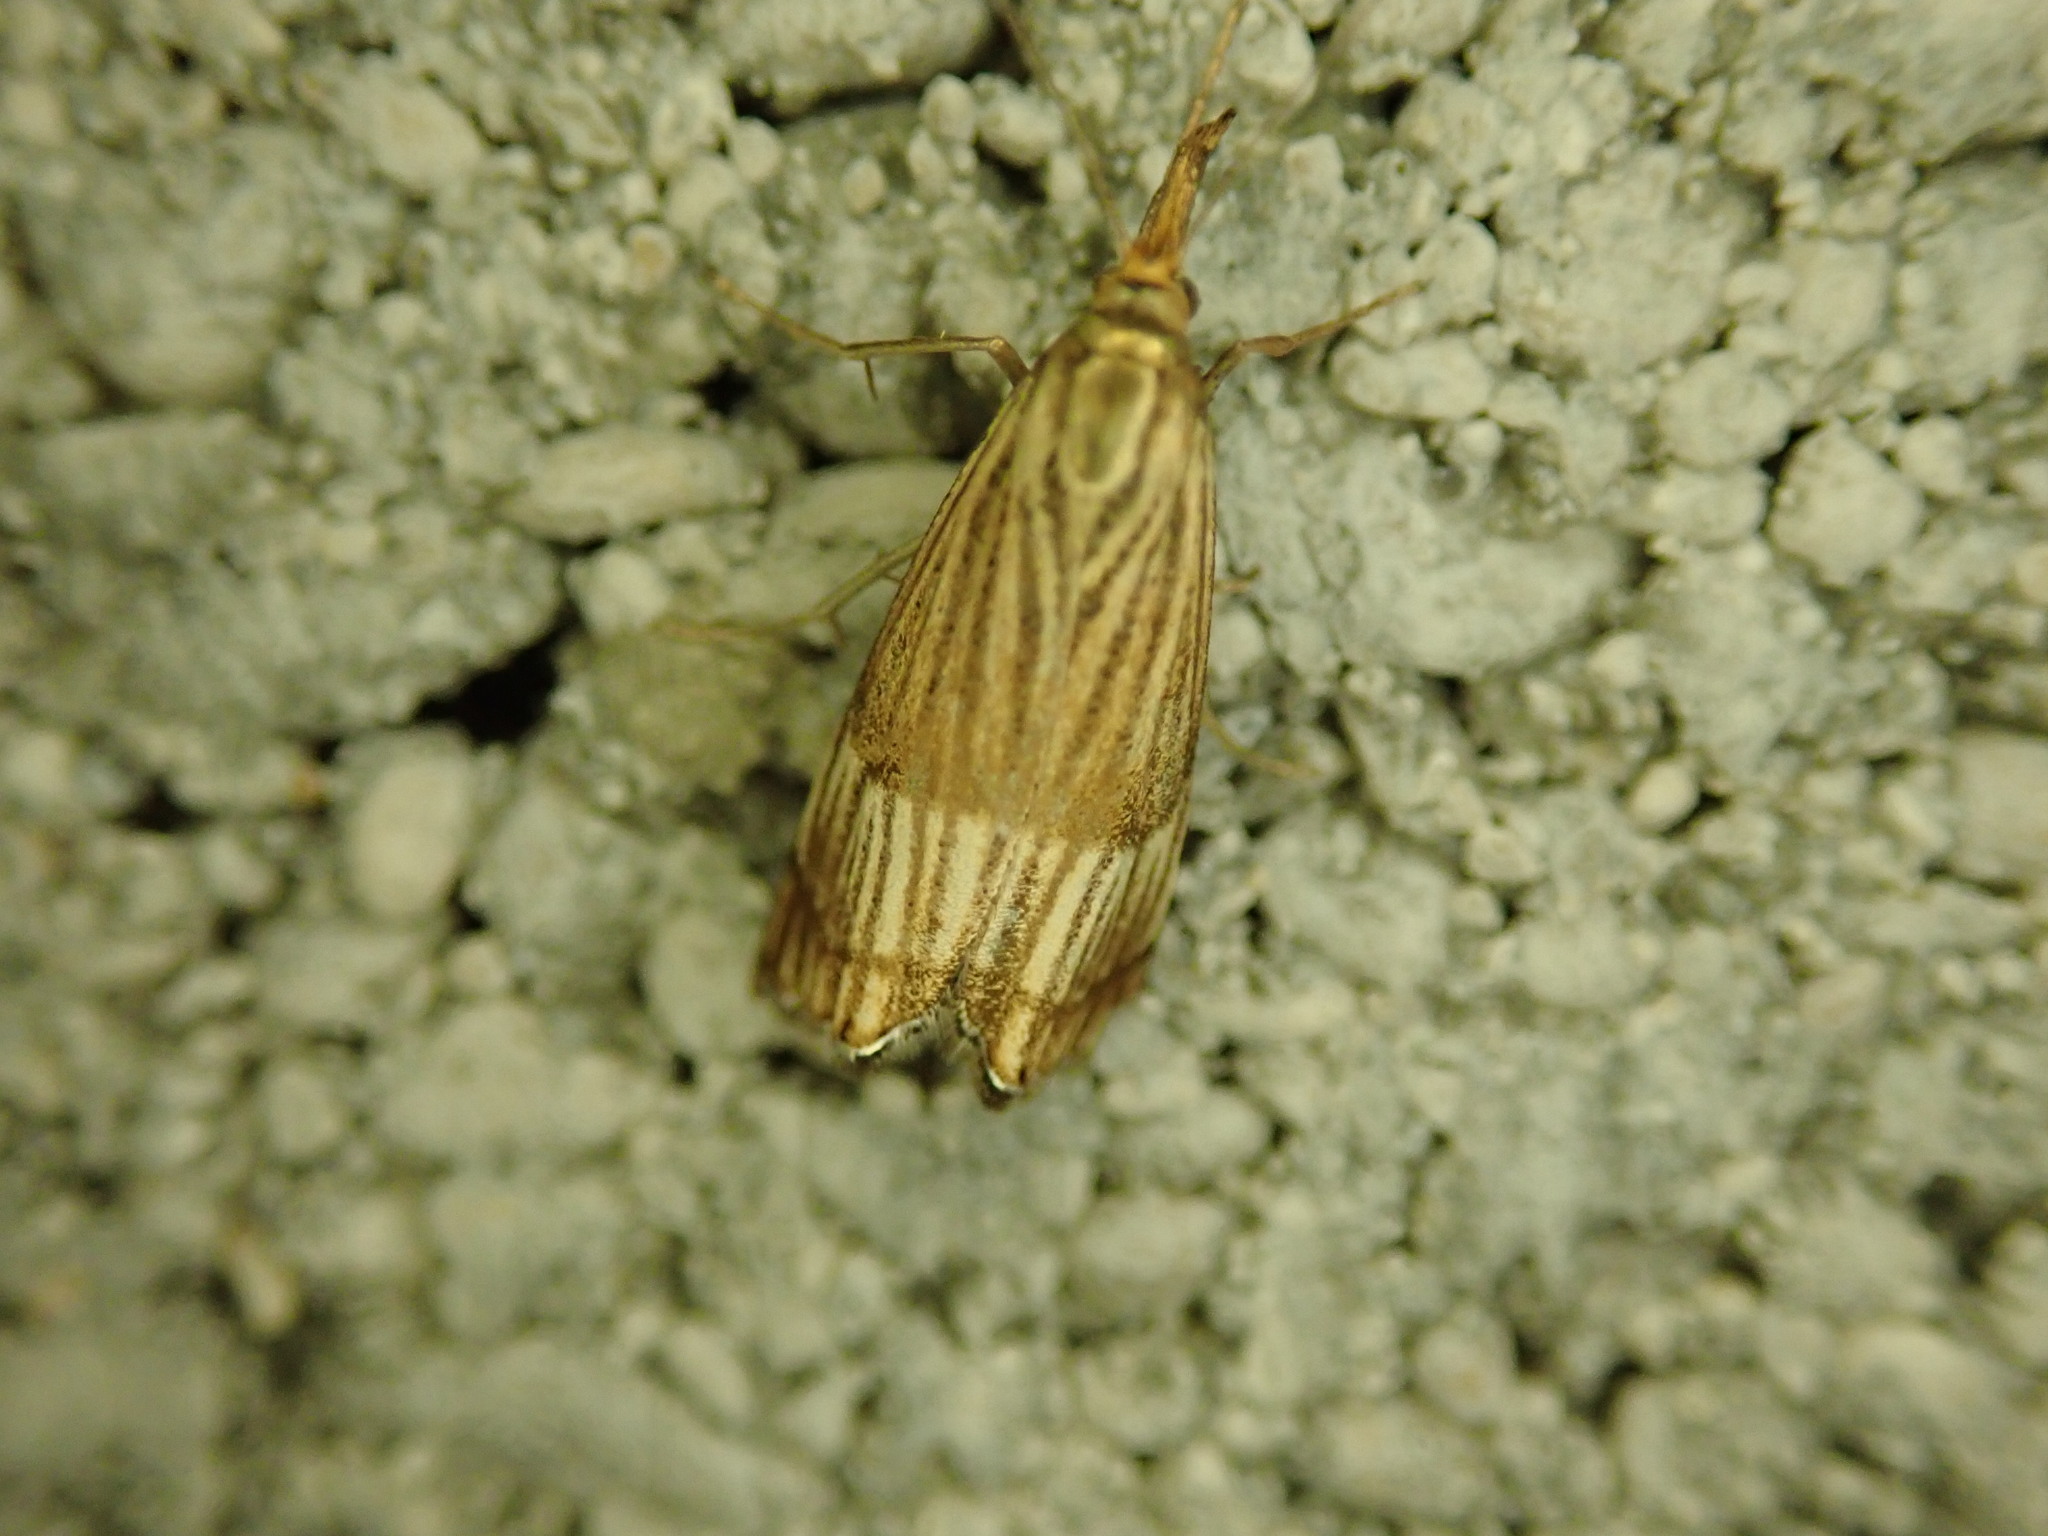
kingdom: Animalia
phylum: Arthropoda
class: Insecta
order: Lepidoptera
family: Crambidae
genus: Chrysocrambus
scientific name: Chrysocrambus linetella
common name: Orange-bar grass-veneer
